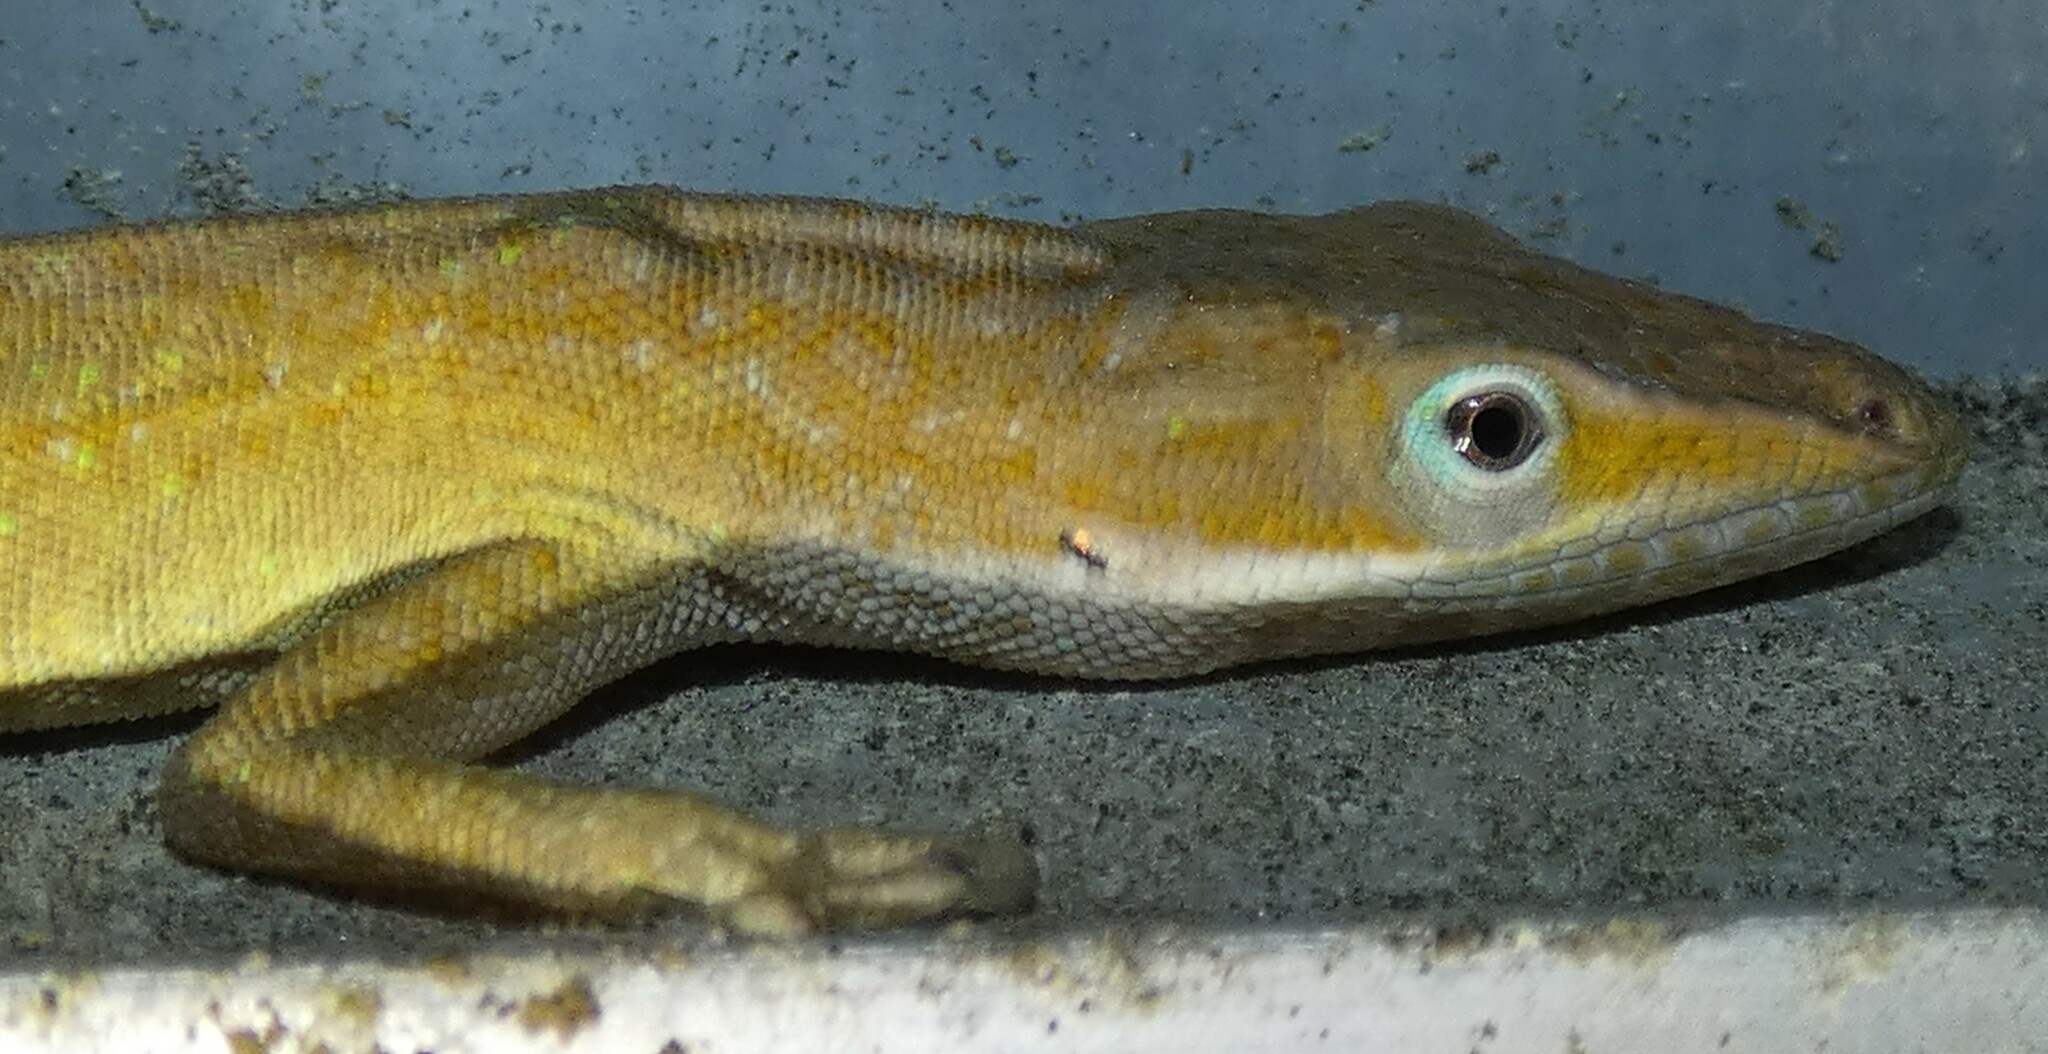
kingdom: Animalia
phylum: Chordata
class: Squamata
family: Dactyloidae
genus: Anolis
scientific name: Anolis carolinensis
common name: Green anole
